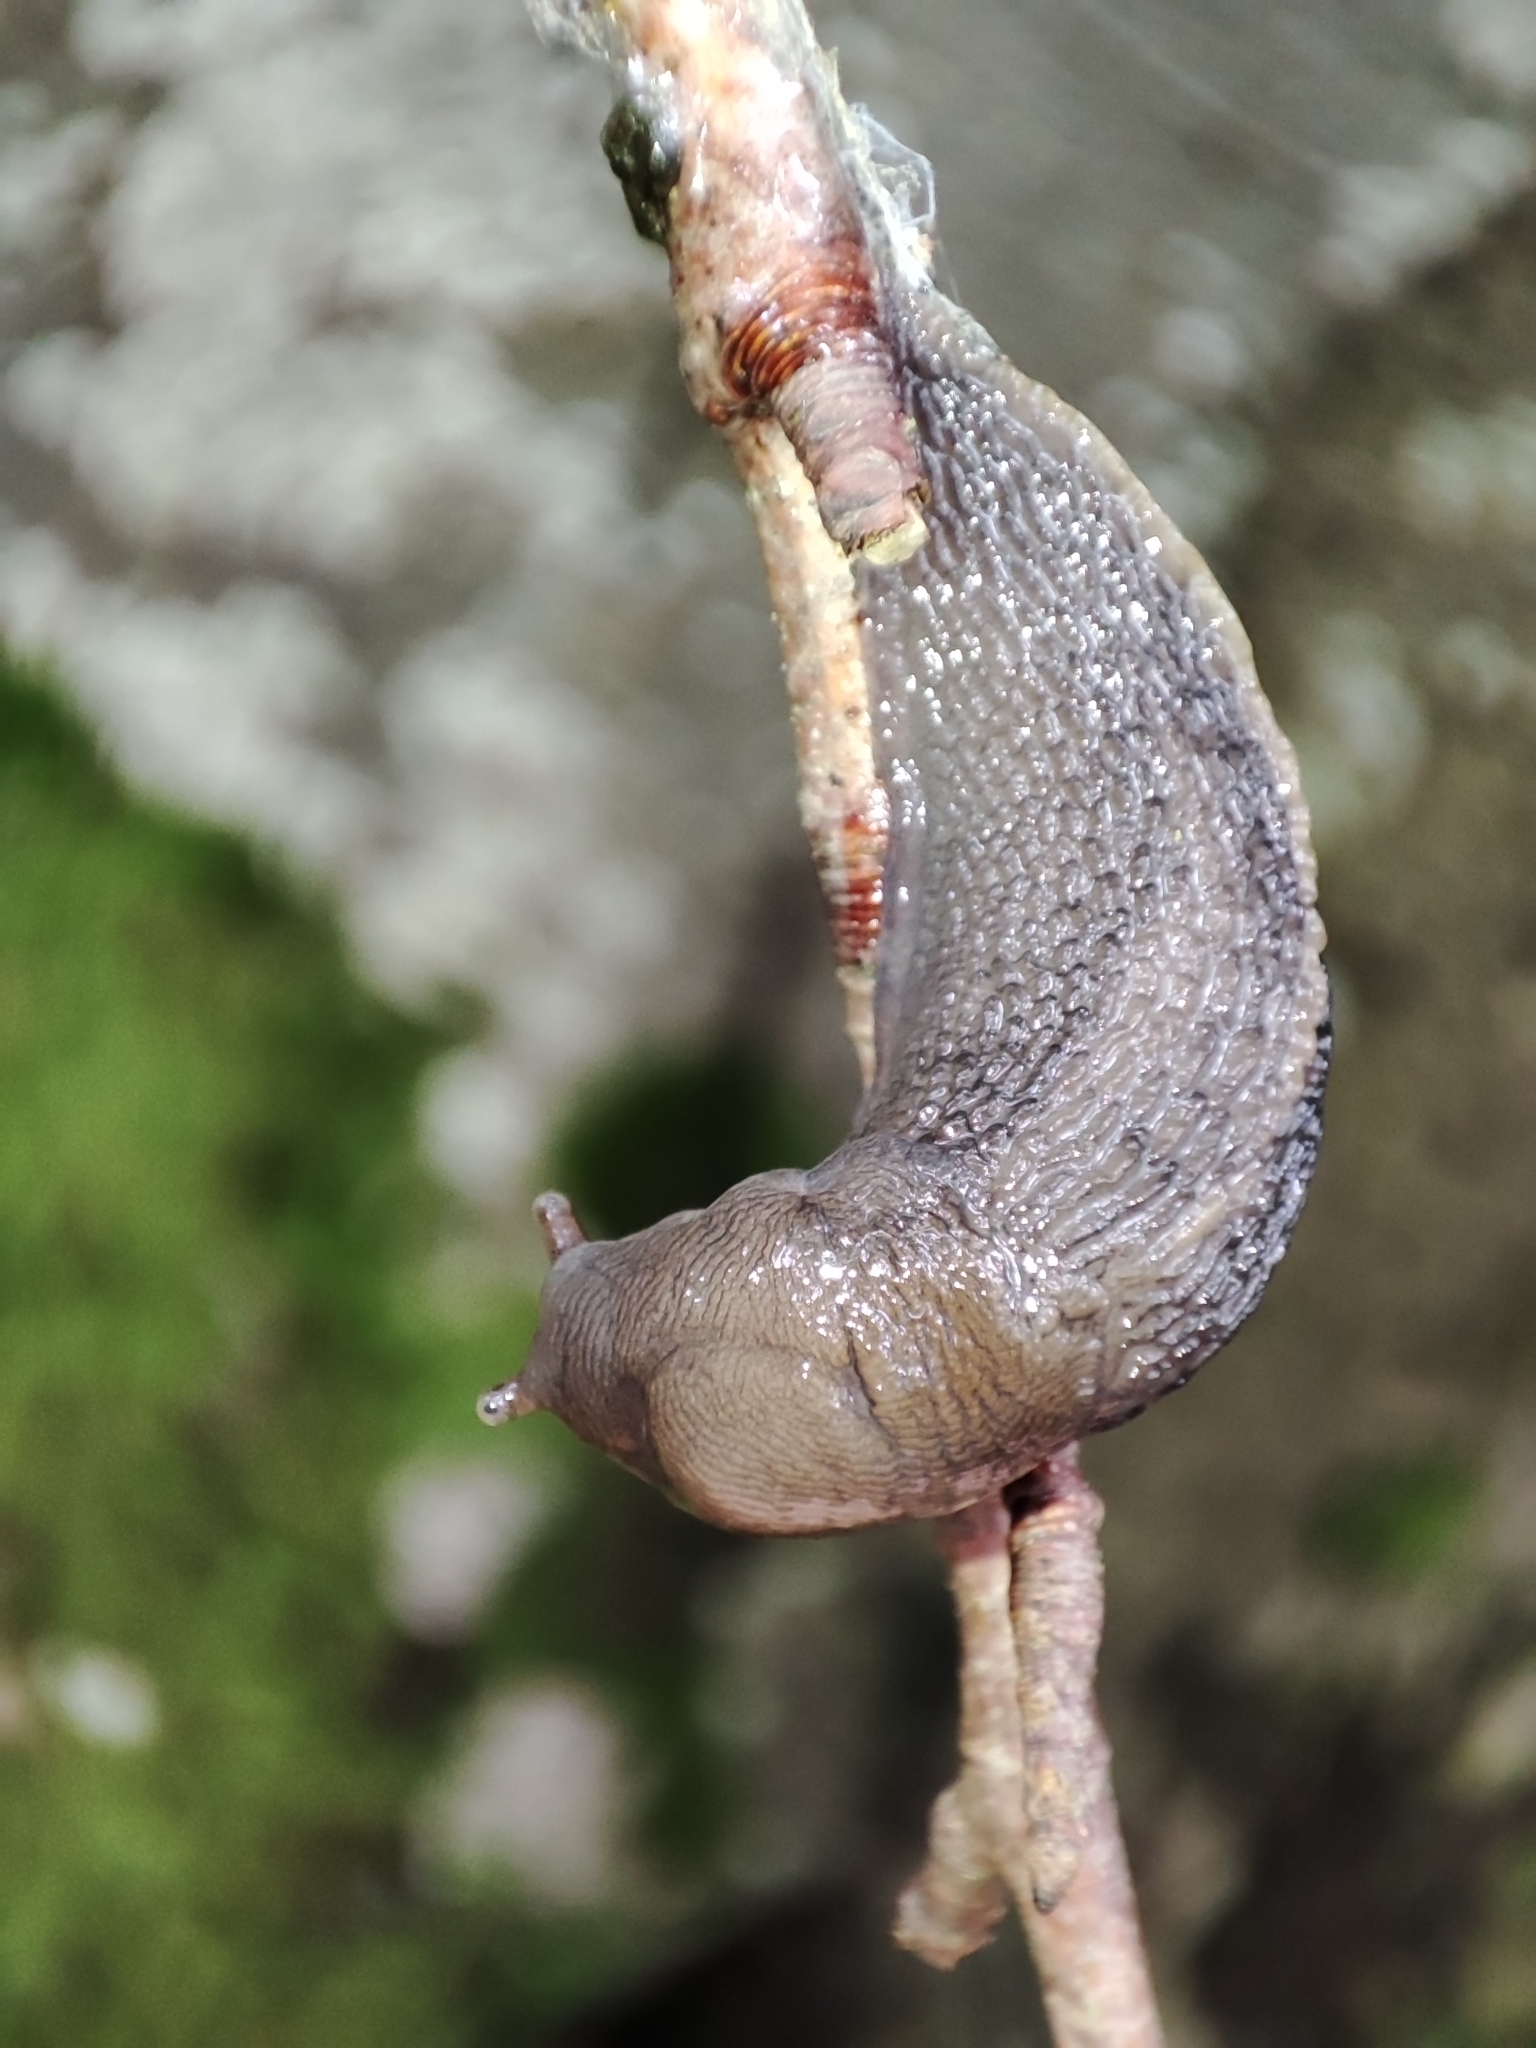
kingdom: Animalia
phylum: Mollusca
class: Gastropoda
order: Stylommatophora
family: Limacidae
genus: Limax
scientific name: Limax cinereoniger
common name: Ash-black slug
